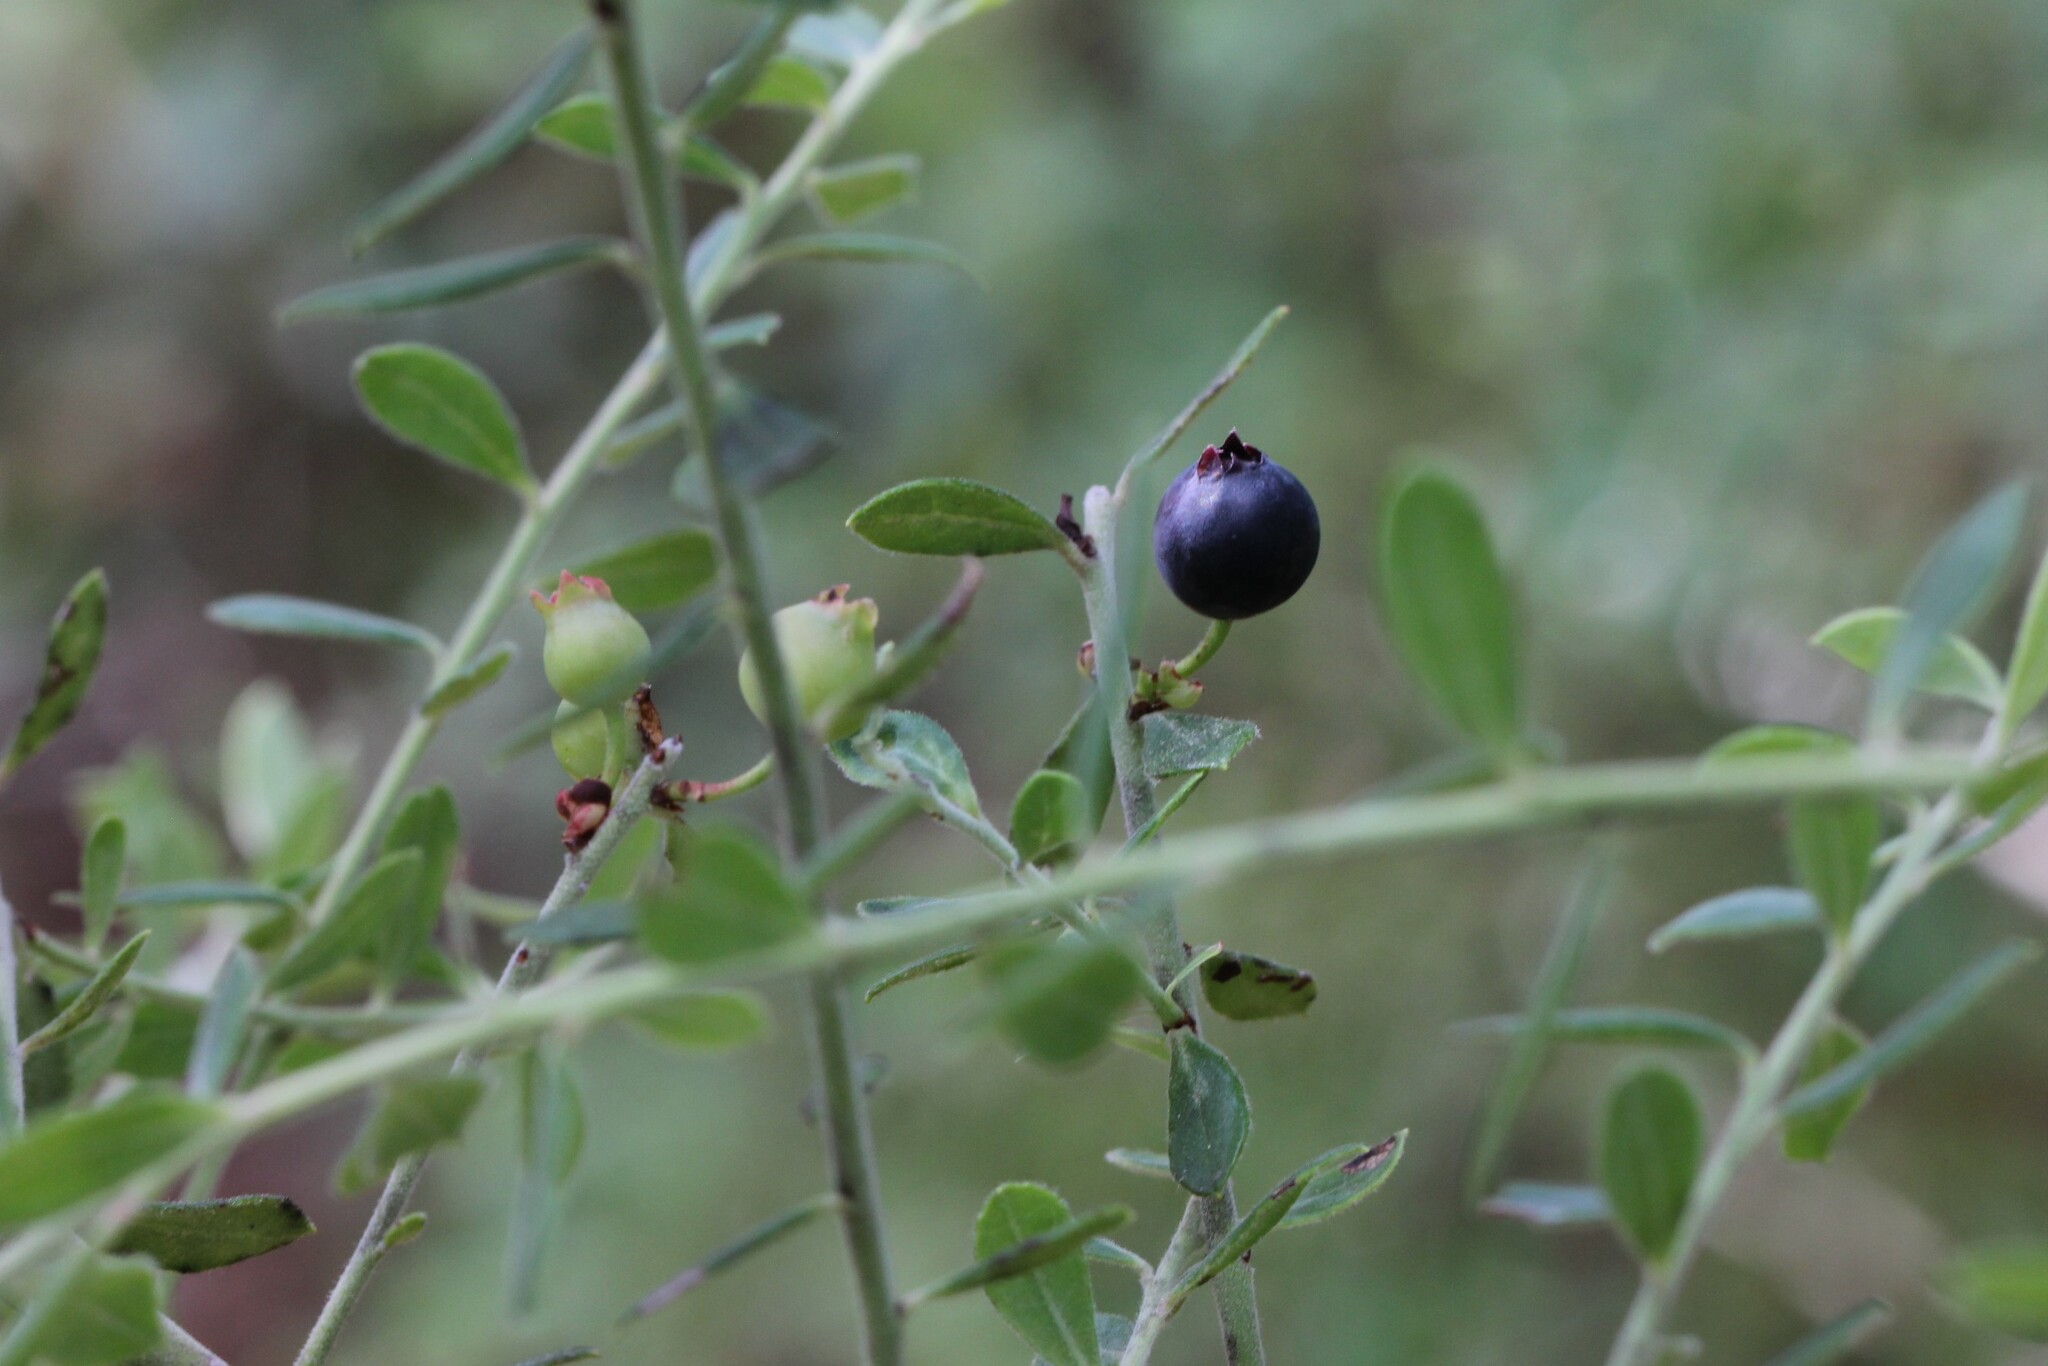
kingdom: Plantae
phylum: Tracheophyta
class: Magnoliopsida
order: Ericales
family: Ericaceae
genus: Vaccinium
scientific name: Vaccinium darrowii
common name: Darrow's blueberry
